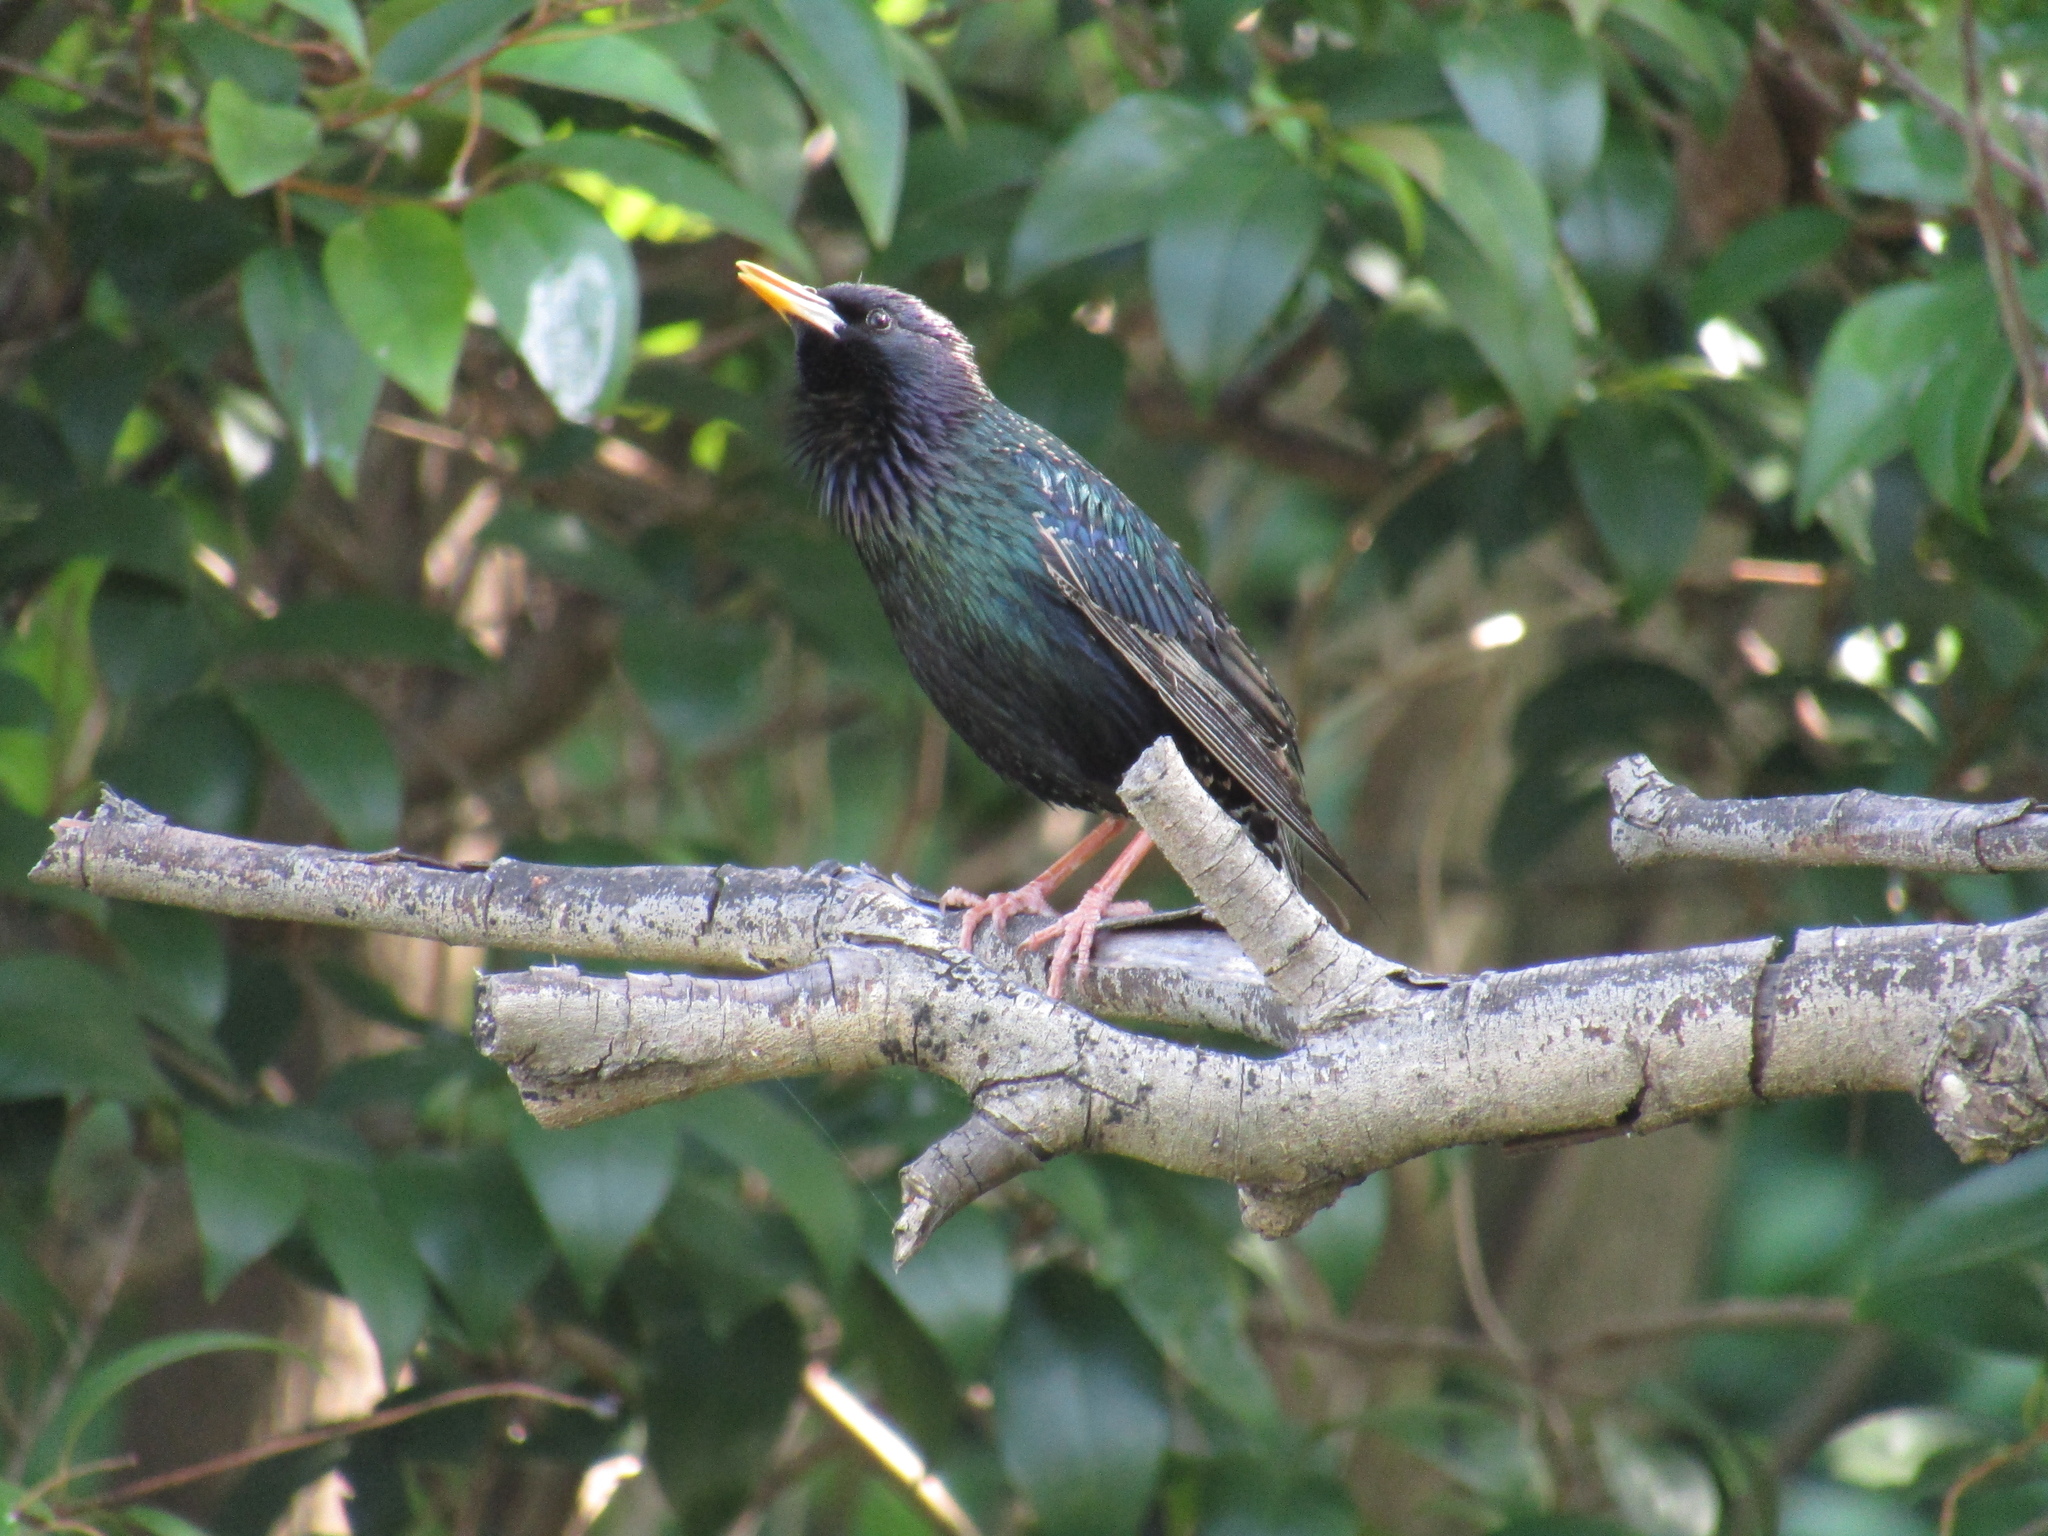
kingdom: Animalia
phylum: Chordata
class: Aves
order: Passeriformes
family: Sturnidae
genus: Sturnus
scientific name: Sturnus vulgaris
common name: Common starling
